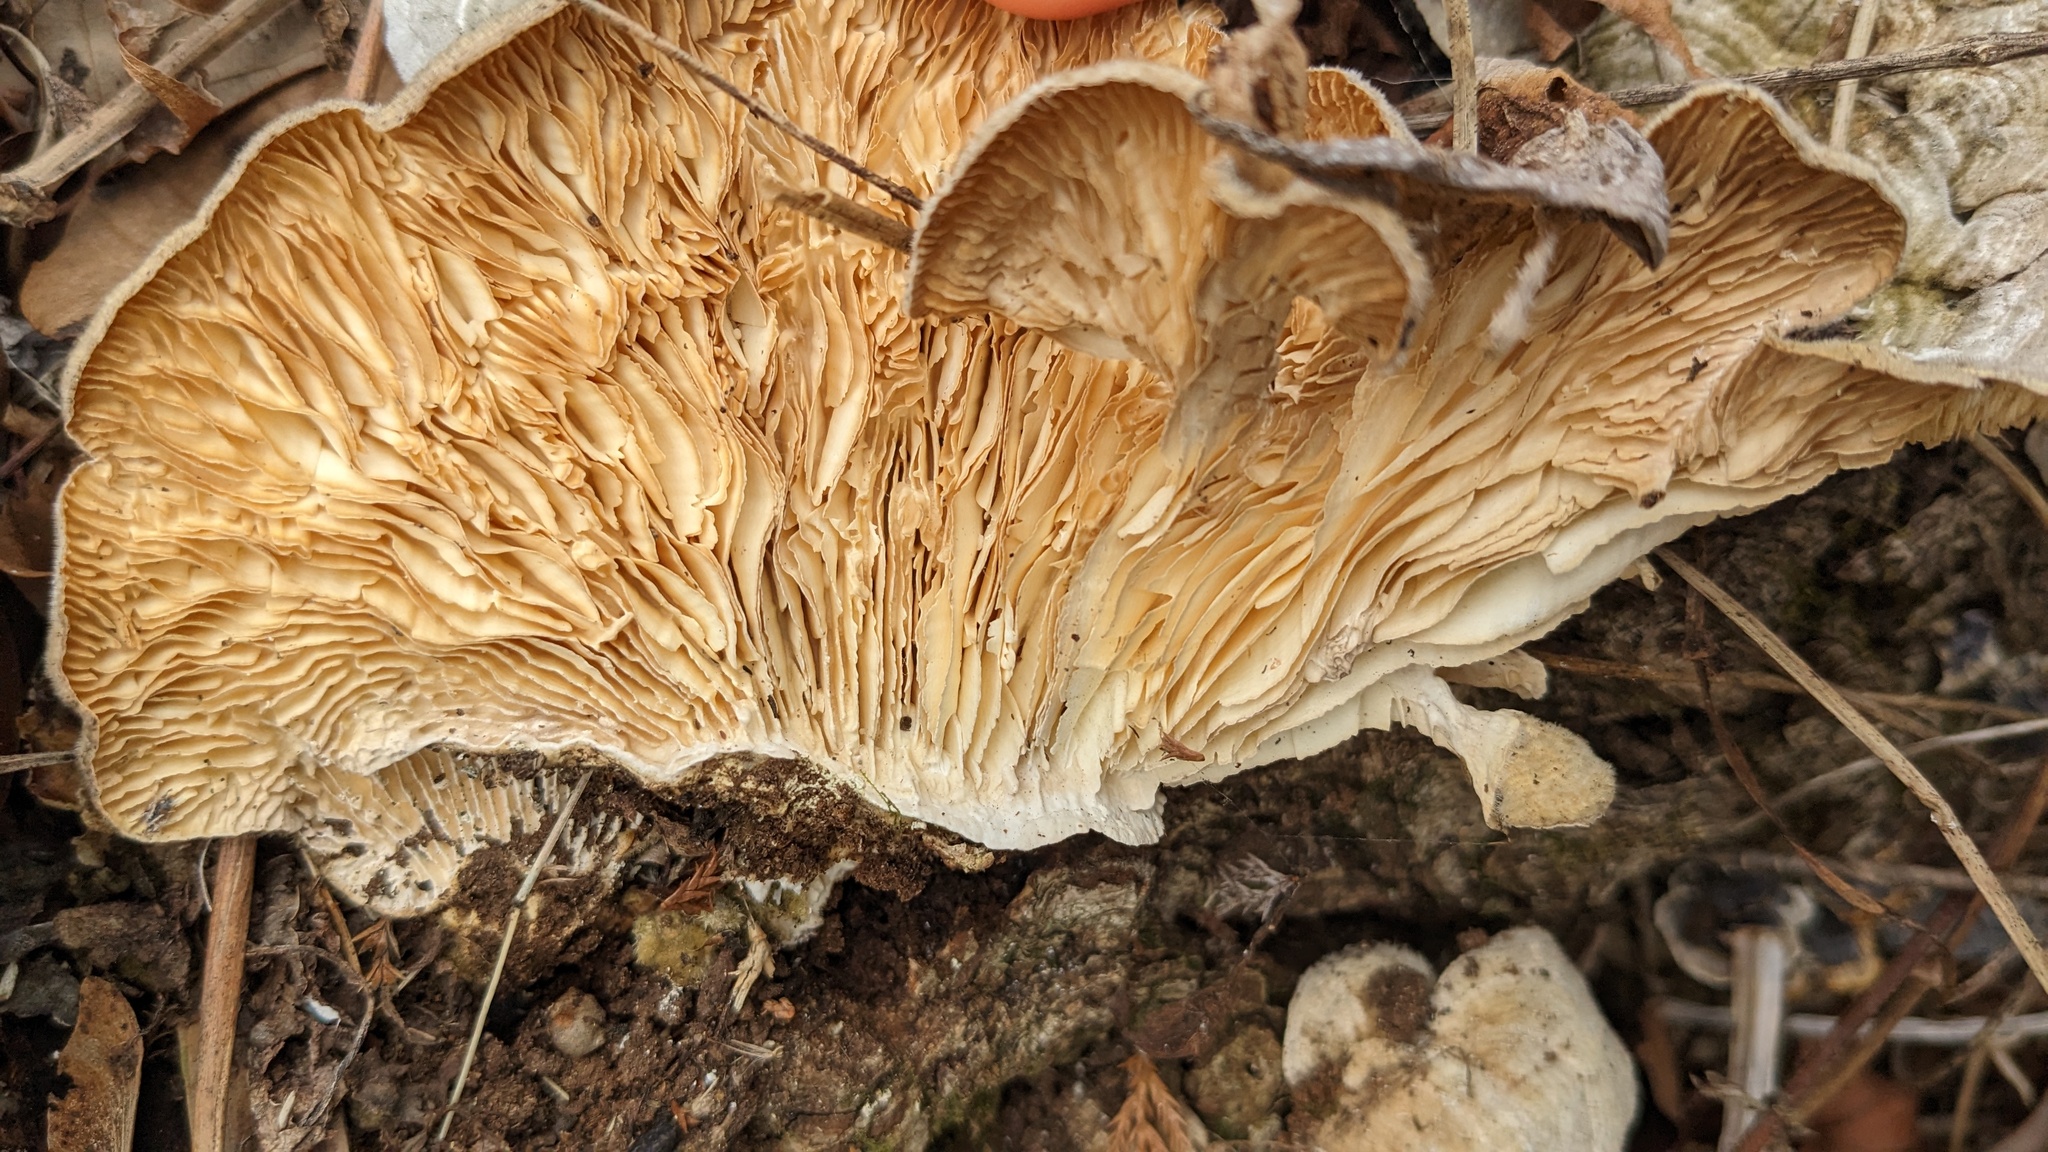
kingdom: Fungi
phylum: Basidiomycota
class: Agaricomycetes
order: Polyporales
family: Polyporaceae
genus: Lenzites
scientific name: Lenzites betulinus
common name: Birch mazegill
